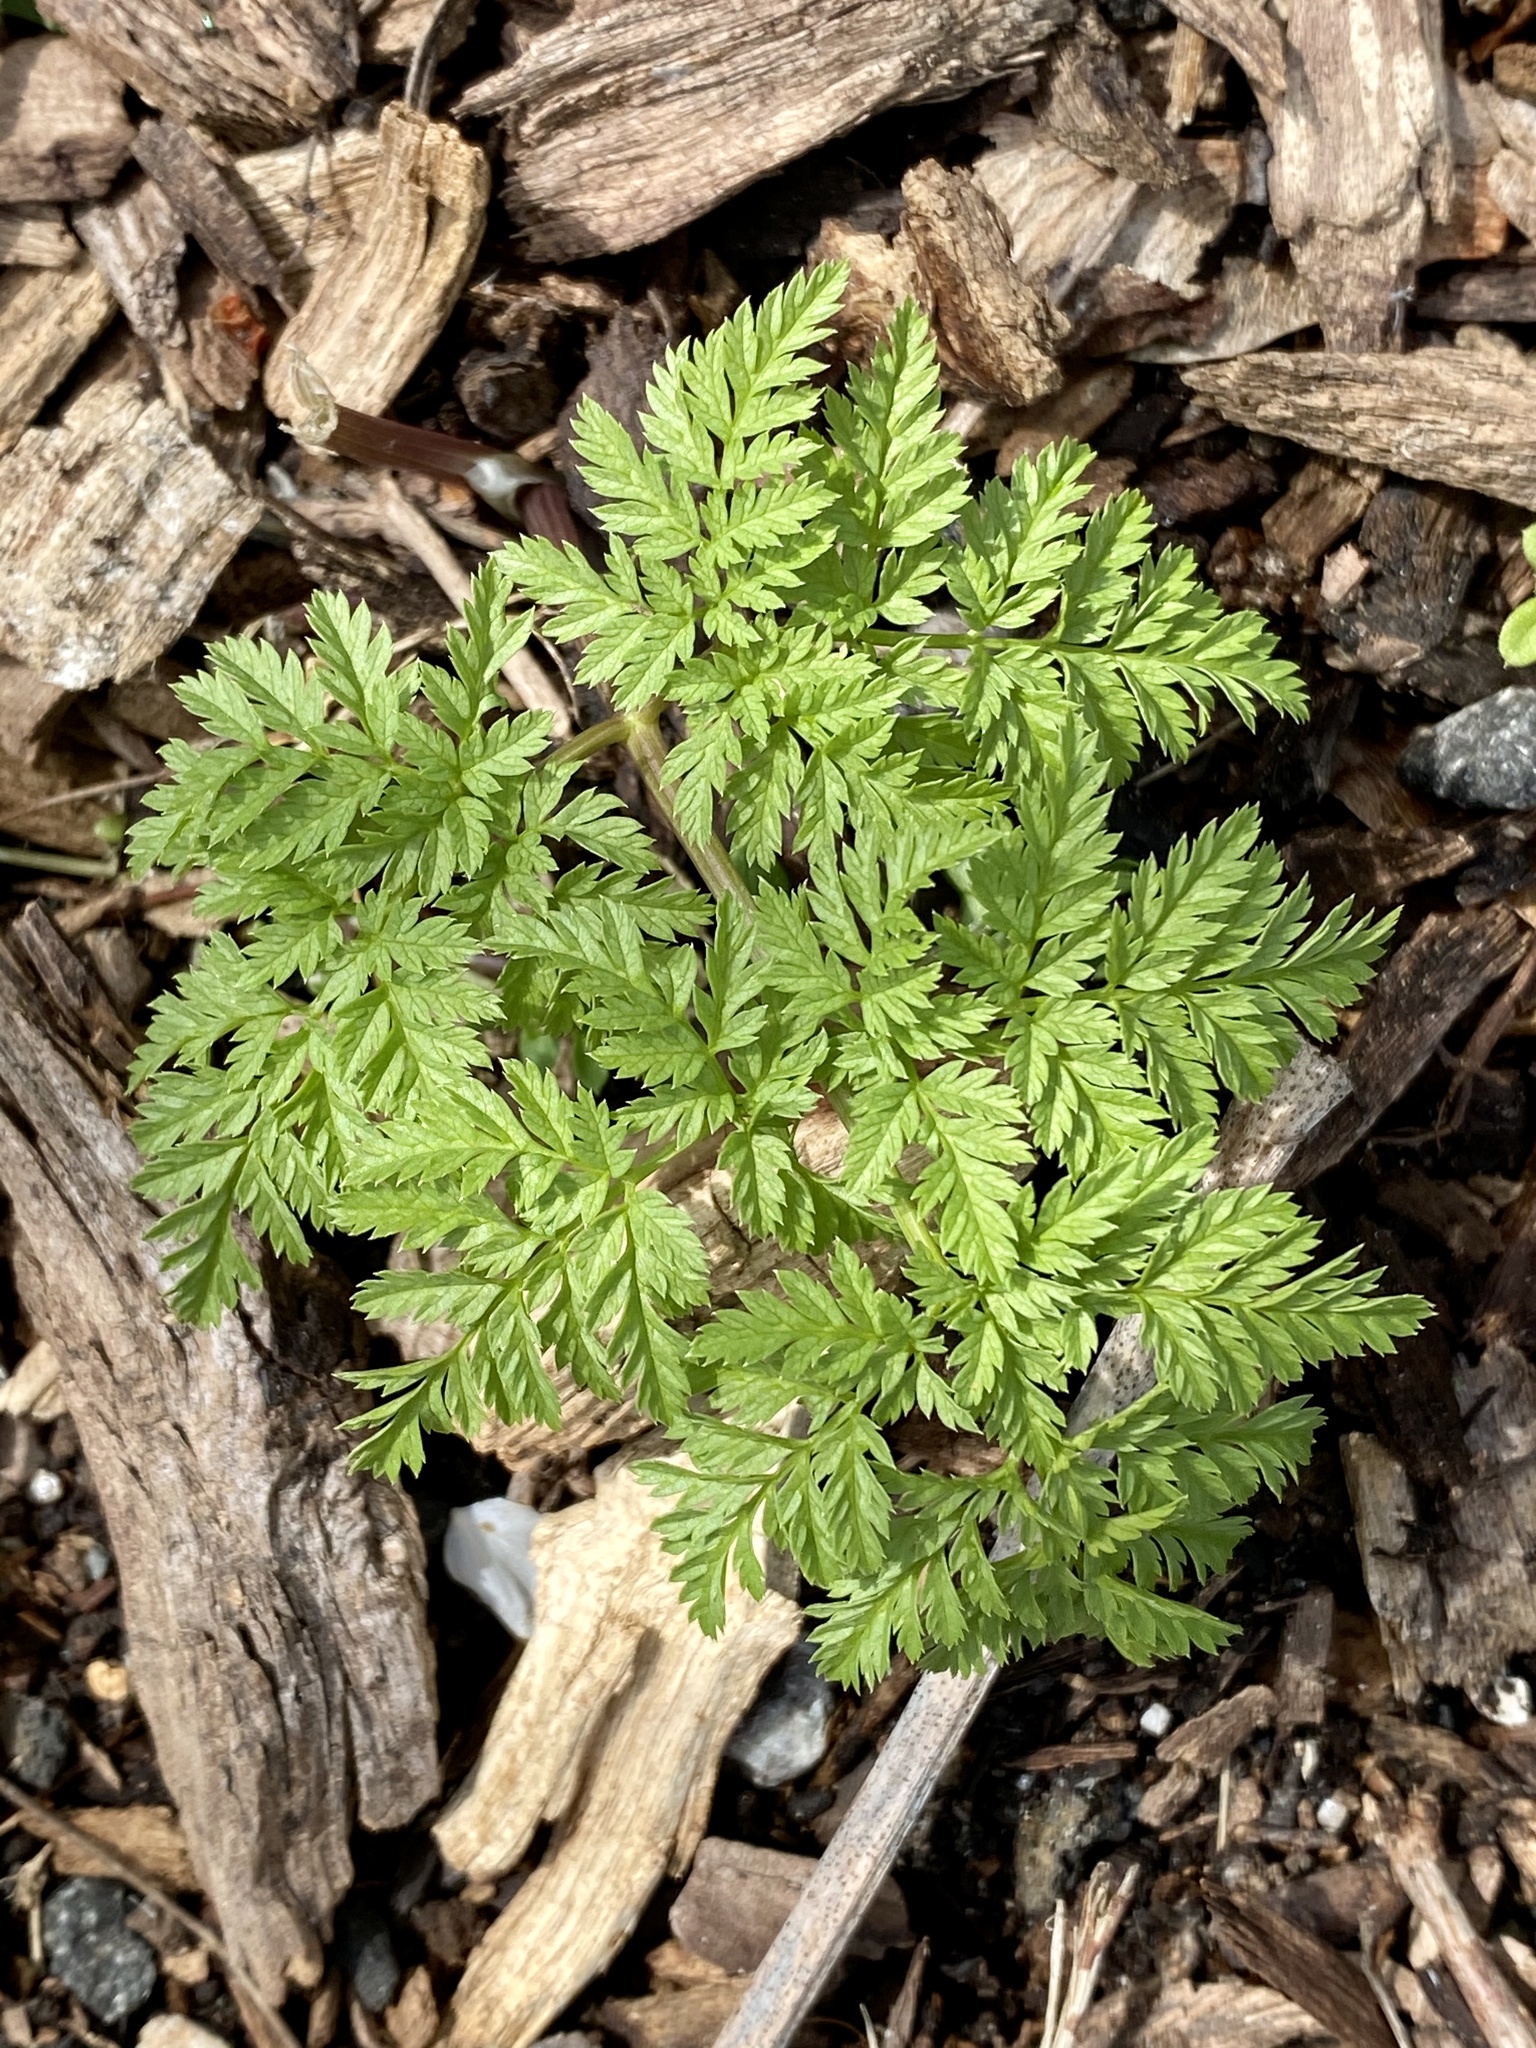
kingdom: Plantae
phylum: Tracheophyta
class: Magnoliopsida
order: Apiales
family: Apiaceae
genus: Conium
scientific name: Conium maculatum
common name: Hemlock
